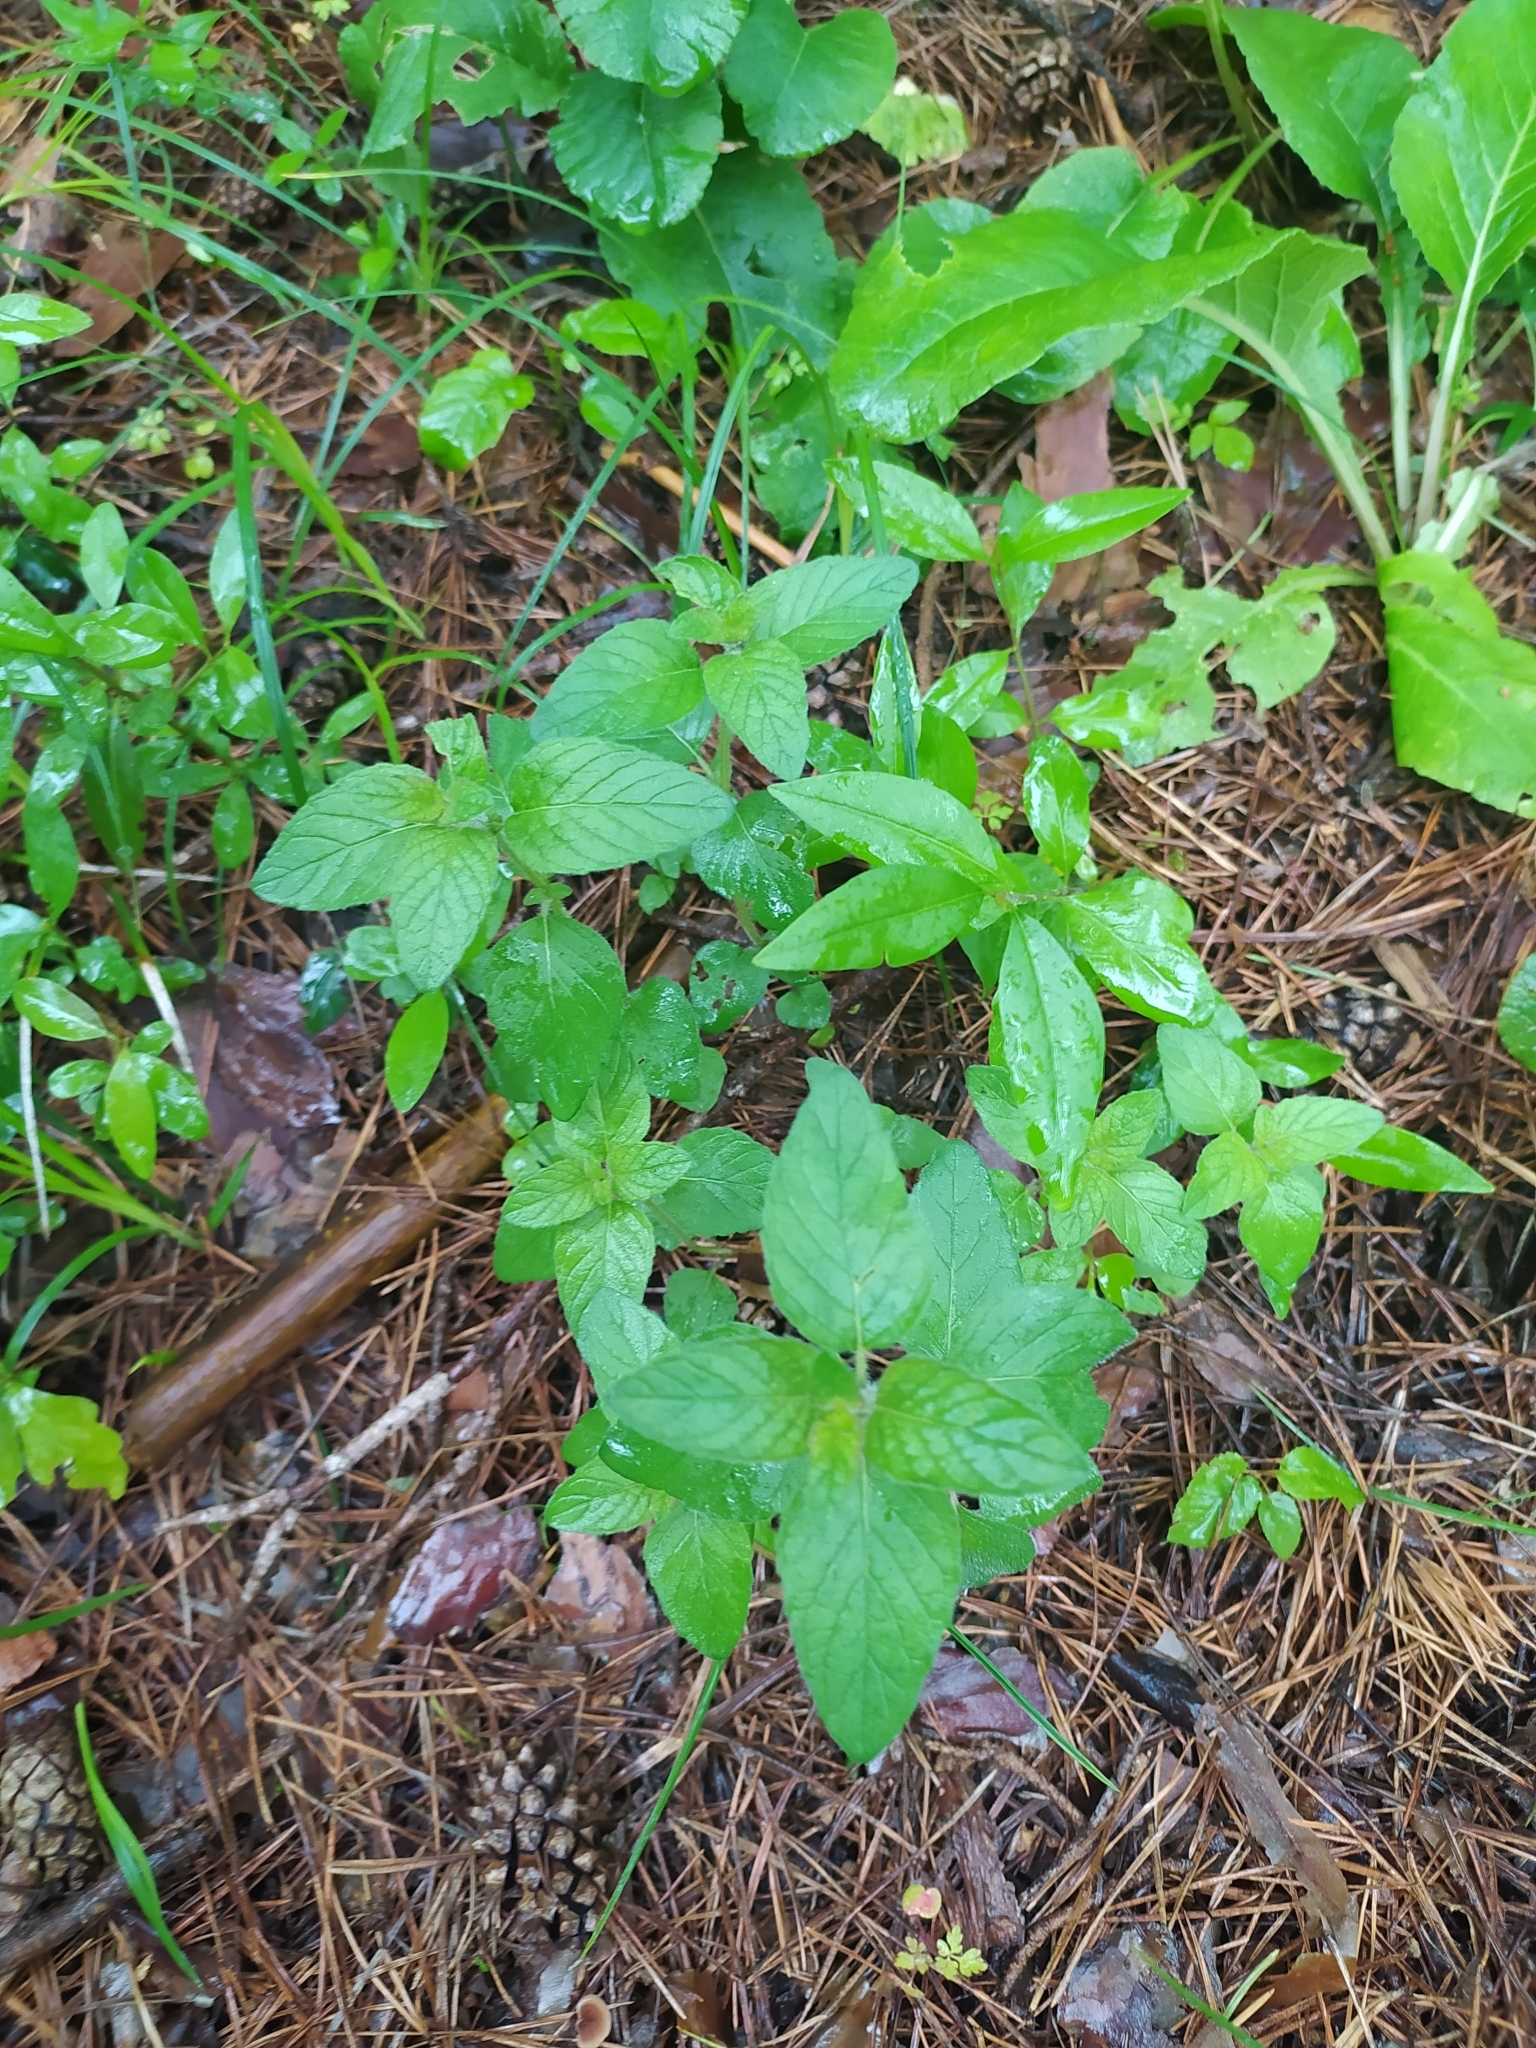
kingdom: Plantae
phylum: Tracheophyta
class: Magnoliopsida
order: Lamiales
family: Lamiaceae
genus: Clinopodium
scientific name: Clinopodium caucasicum
